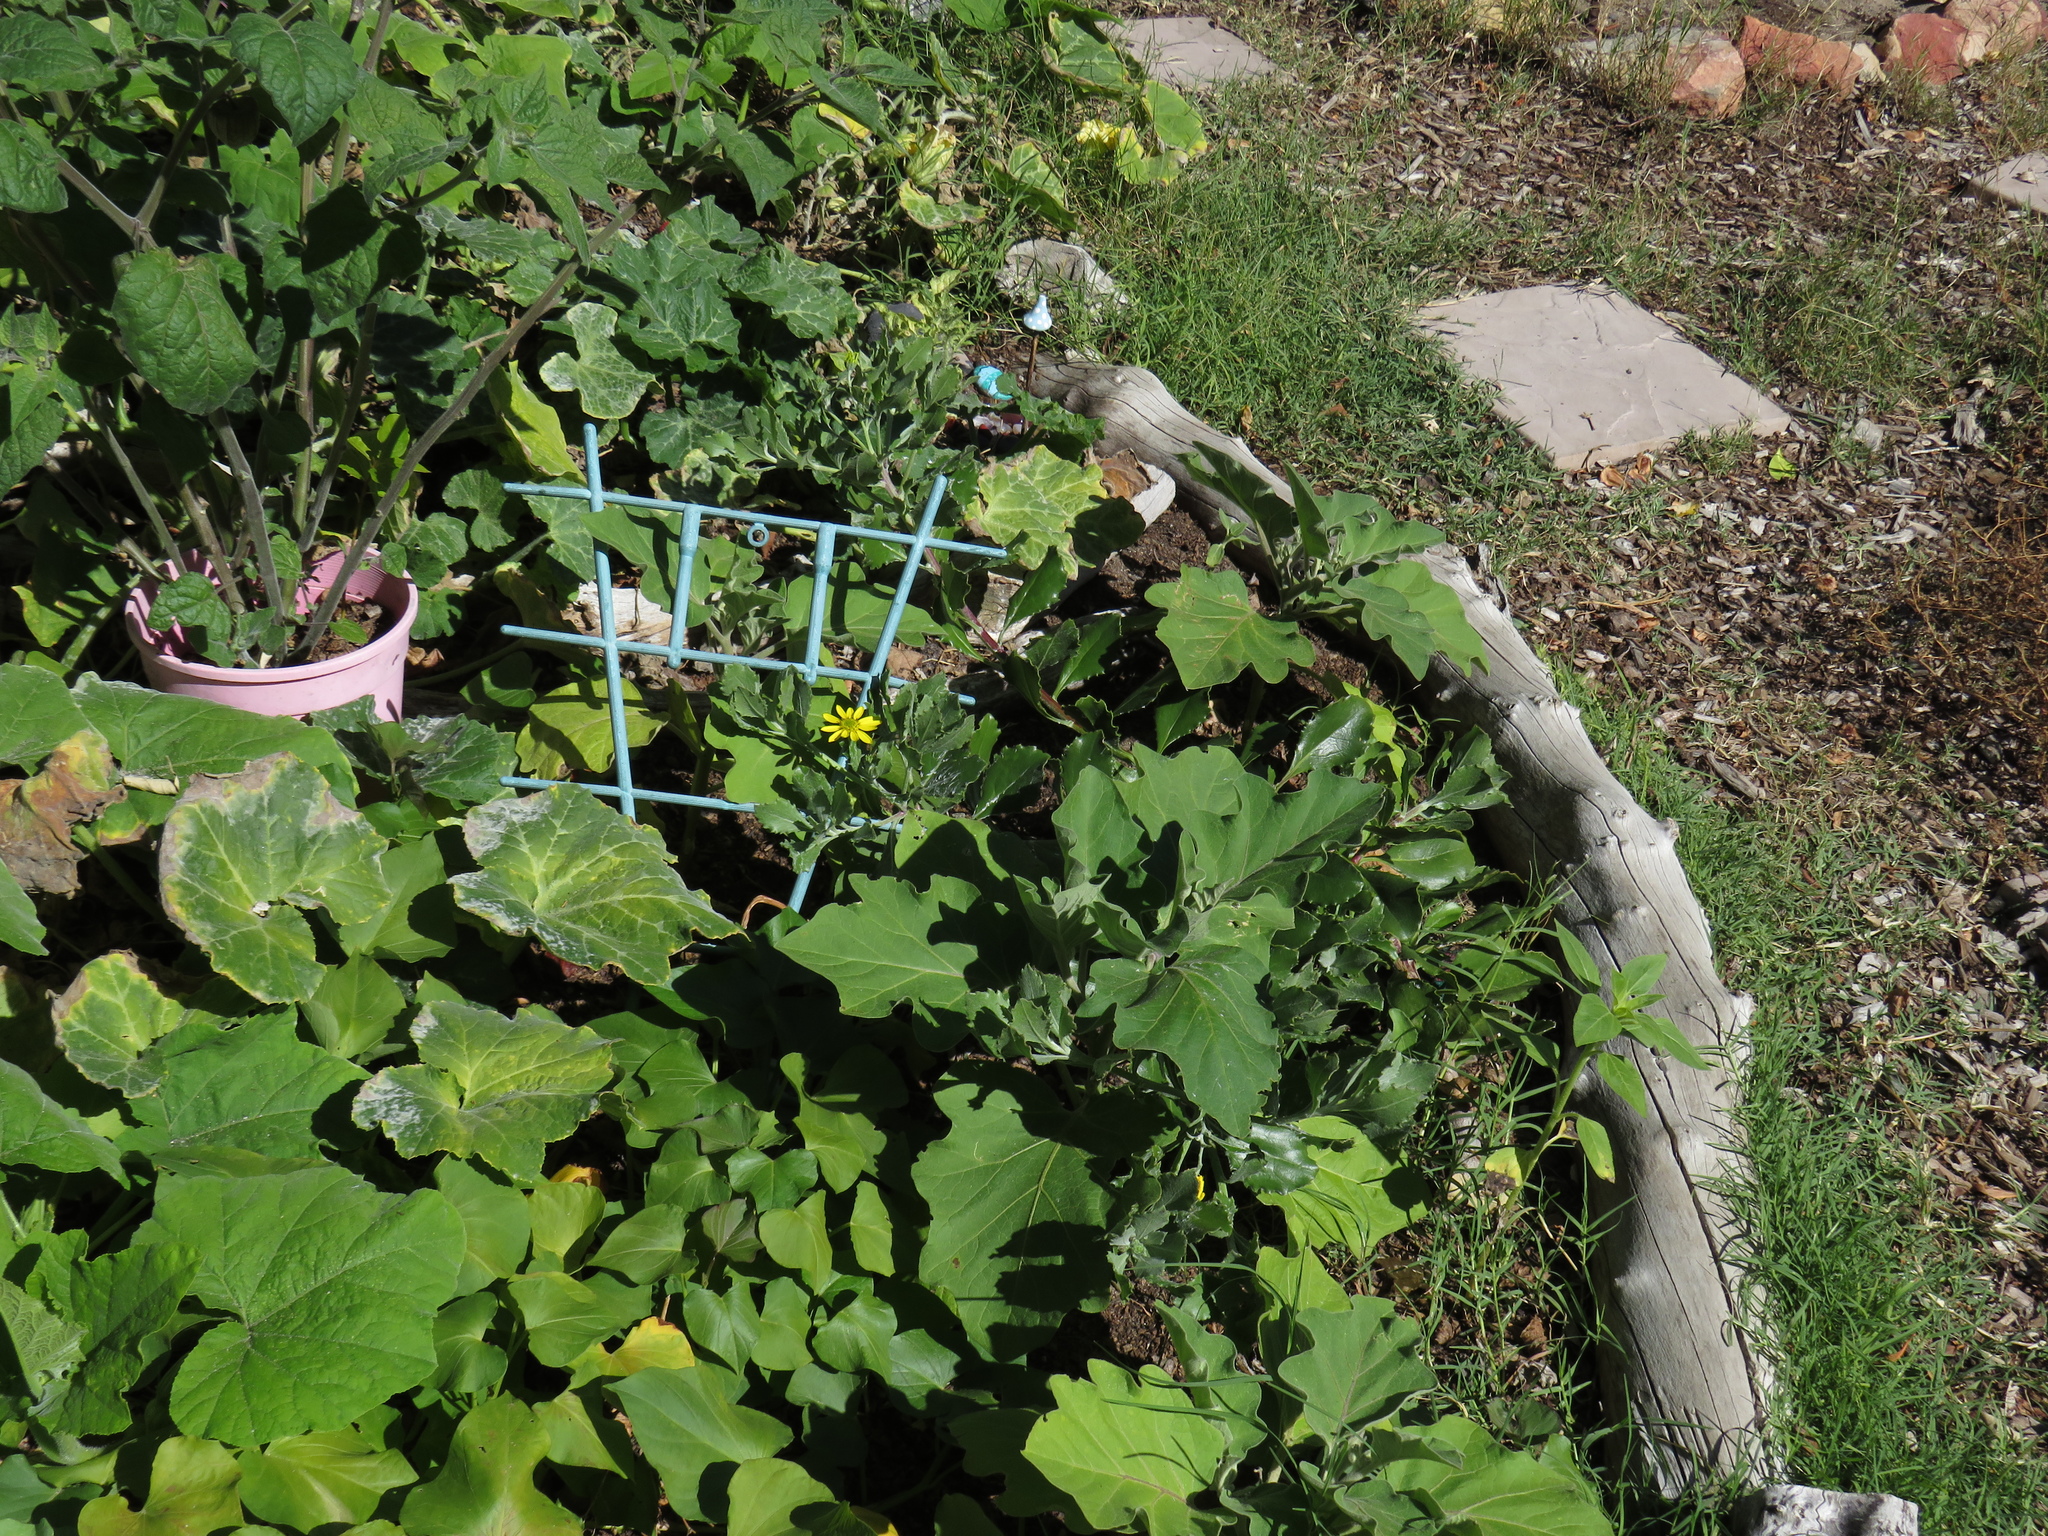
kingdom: Plantae
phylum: Tracheophyta
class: Magnoliopsida
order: Asterales
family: Asteraceae
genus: Osteospermum
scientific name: Osteospermum moniliferum
